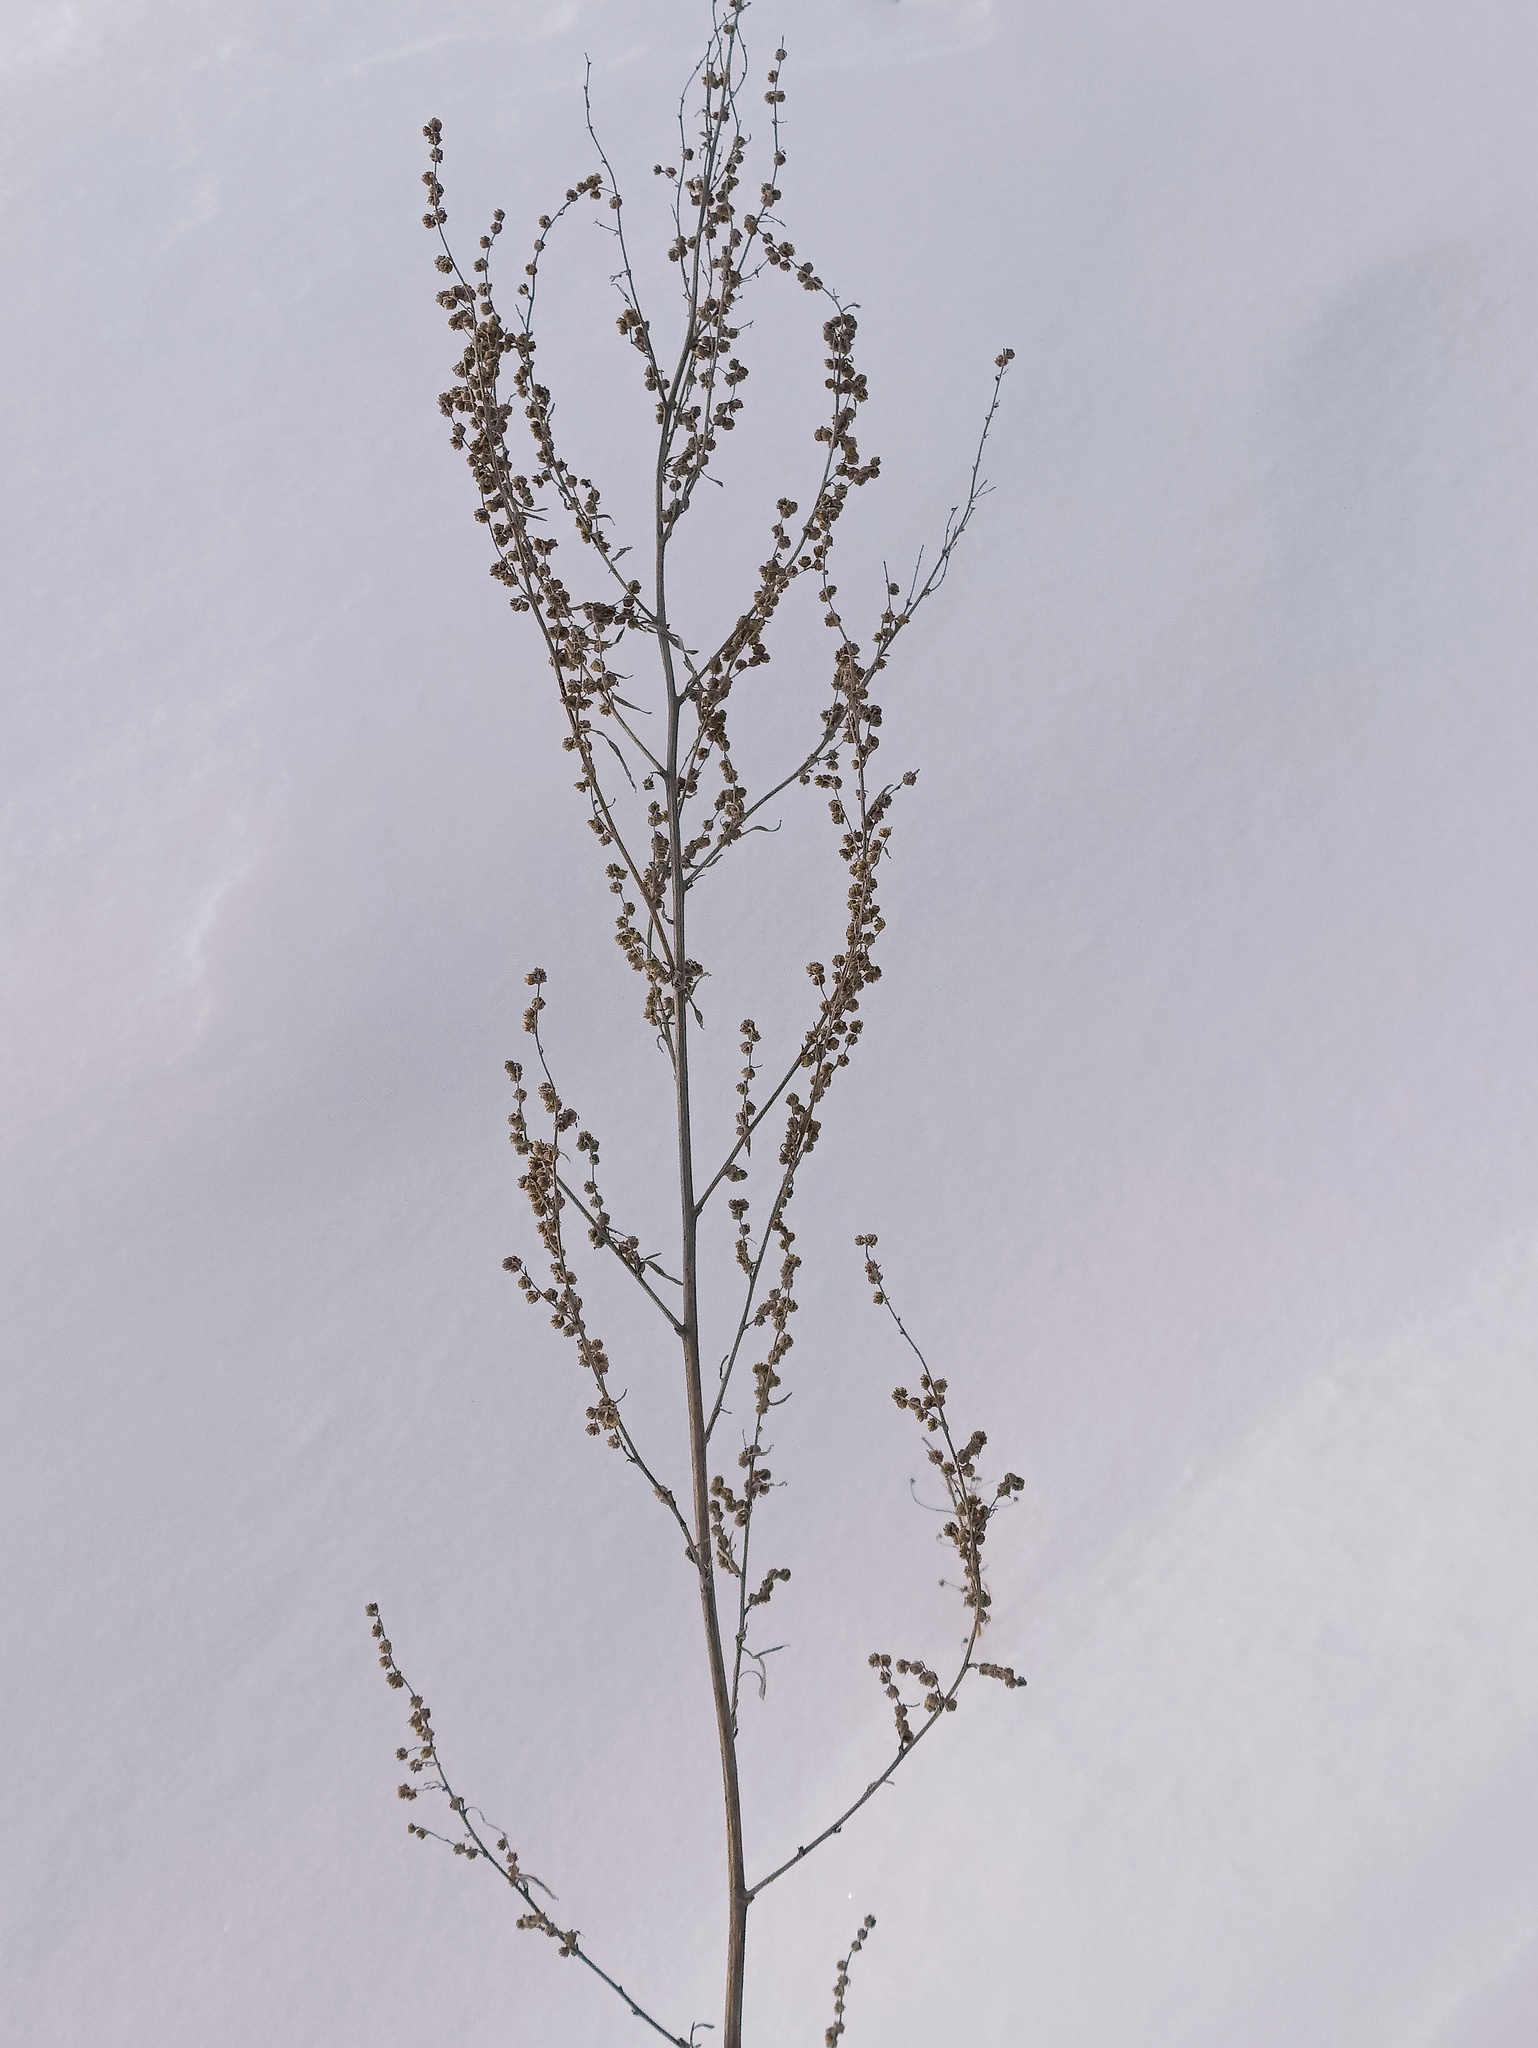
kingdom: Plantae
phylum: Tracheophyta
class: Magnoliopsida
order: Asterales
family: Asteraceae
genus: Artemisia
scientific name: Artemisia absinthium
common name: Wormwood
